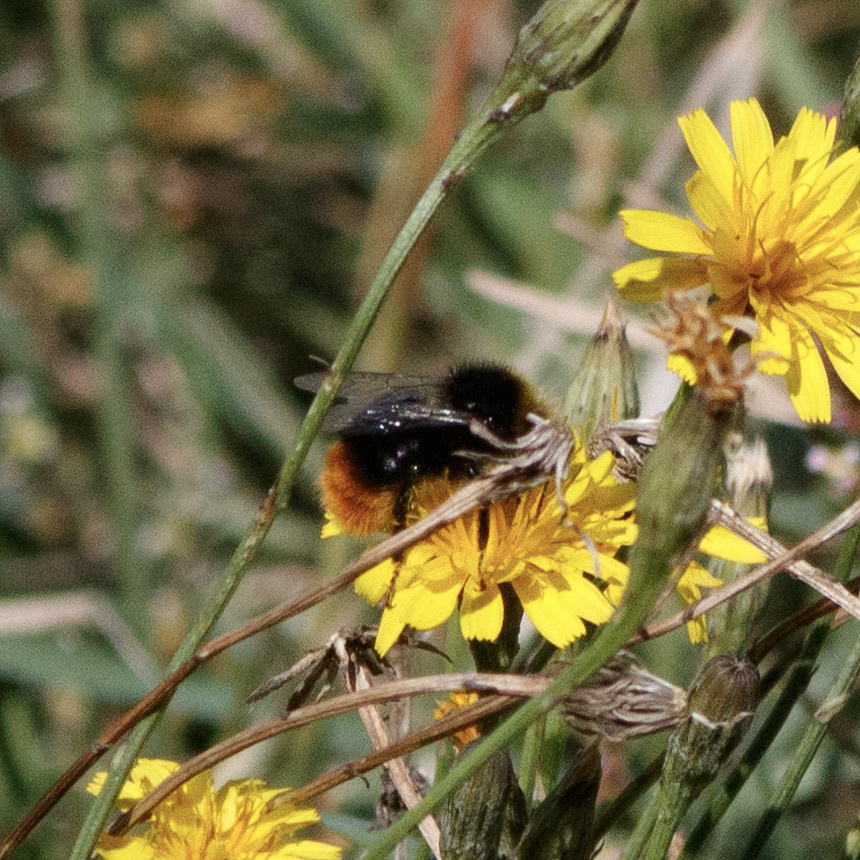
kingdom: Animalia
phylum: Arthropoda
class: Insecta
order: Hymenoptera
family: Apidae
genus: Bombus
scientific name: Bombus lapidarius
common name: Large red-tailed humble-bee
